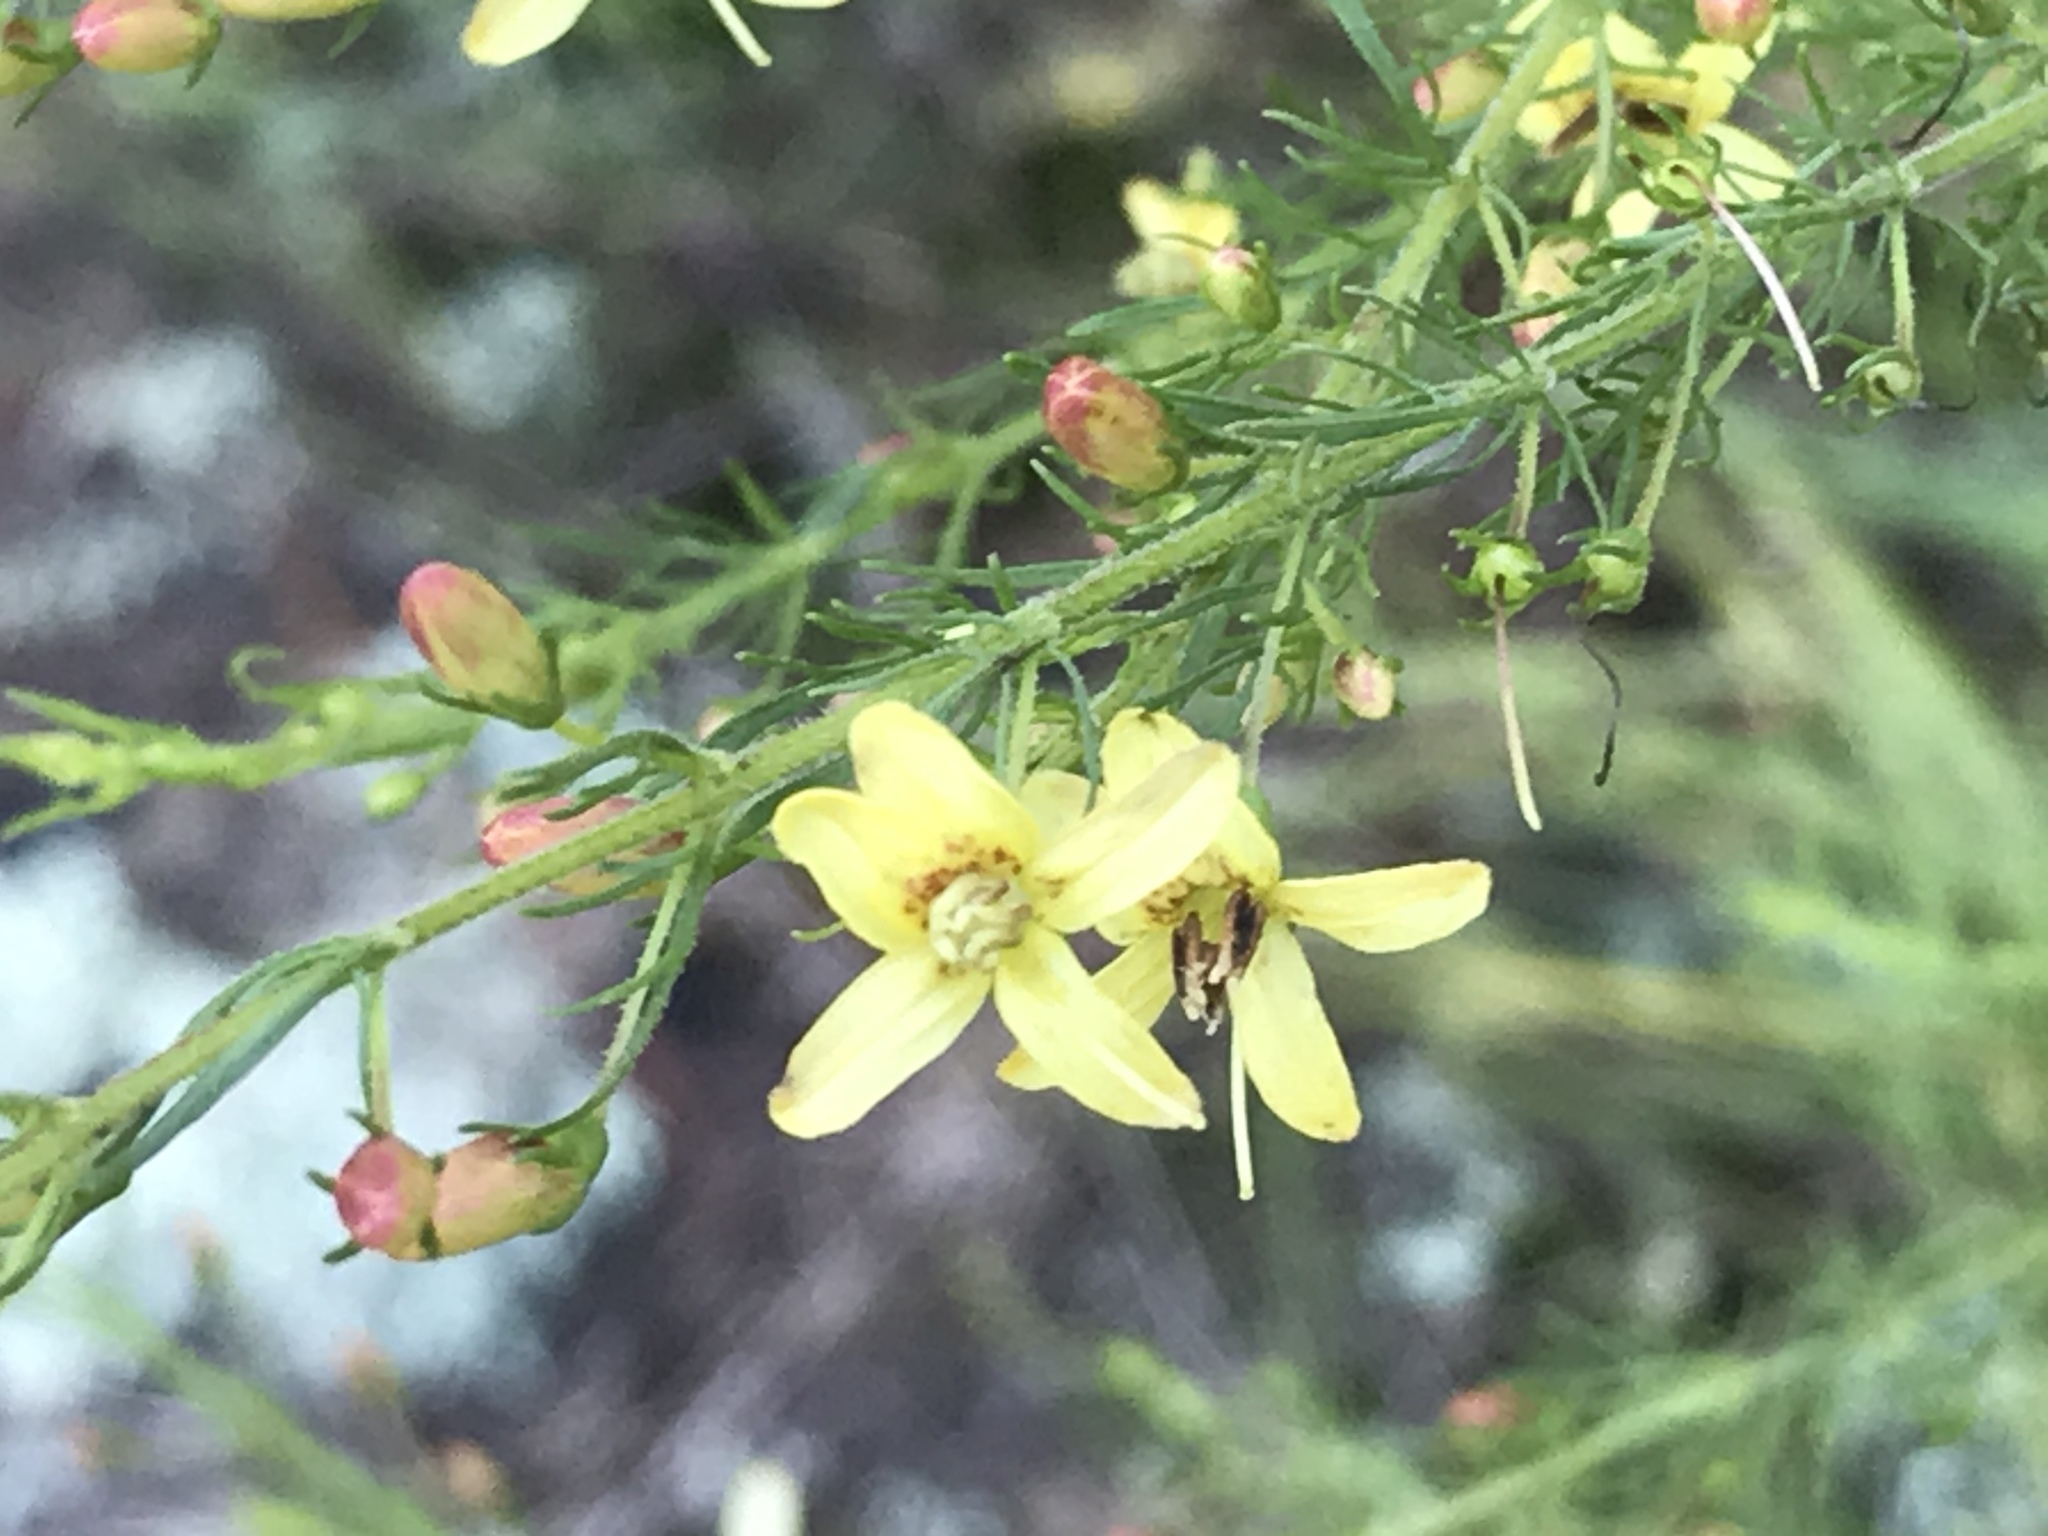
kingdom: Plantae
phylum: Tracheophyta
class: Magnoliopsida
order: Lamiales
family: Orobanchaceae
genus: Seymeria
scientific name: Seymeria cassioides
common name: Yaupon black-senna
